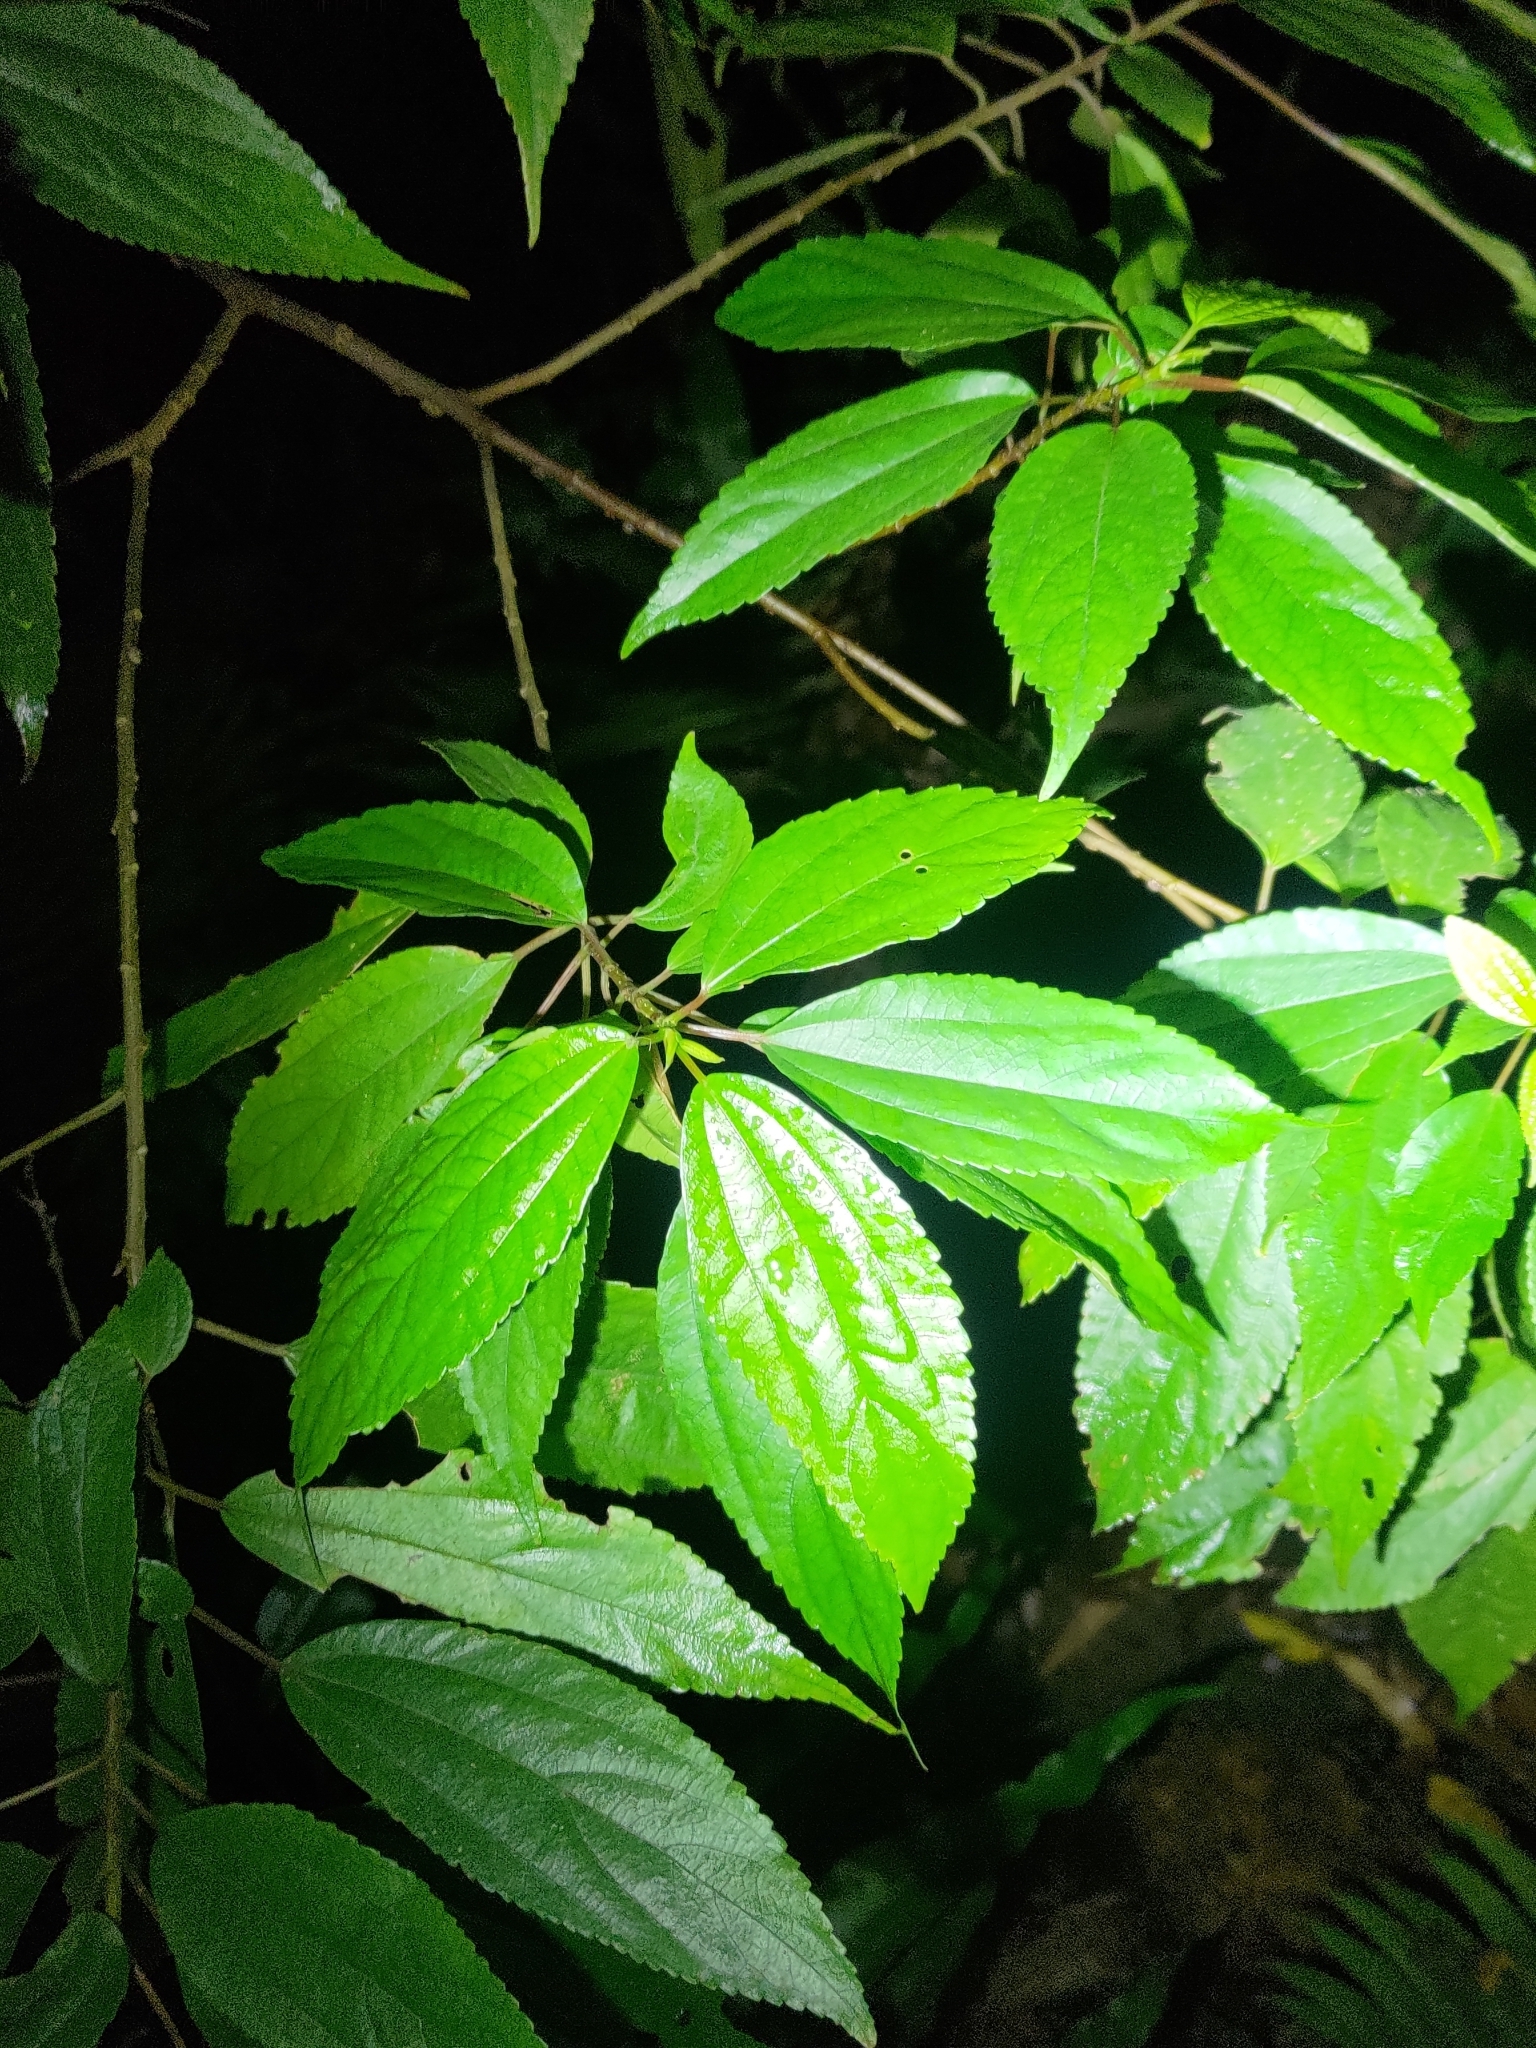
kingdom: Plantae
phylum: Tracheophyta
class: Magnoliopsida
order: Rosales
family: Urticaceae
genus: Oreocnide
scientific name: Oreocnide pedunculata
